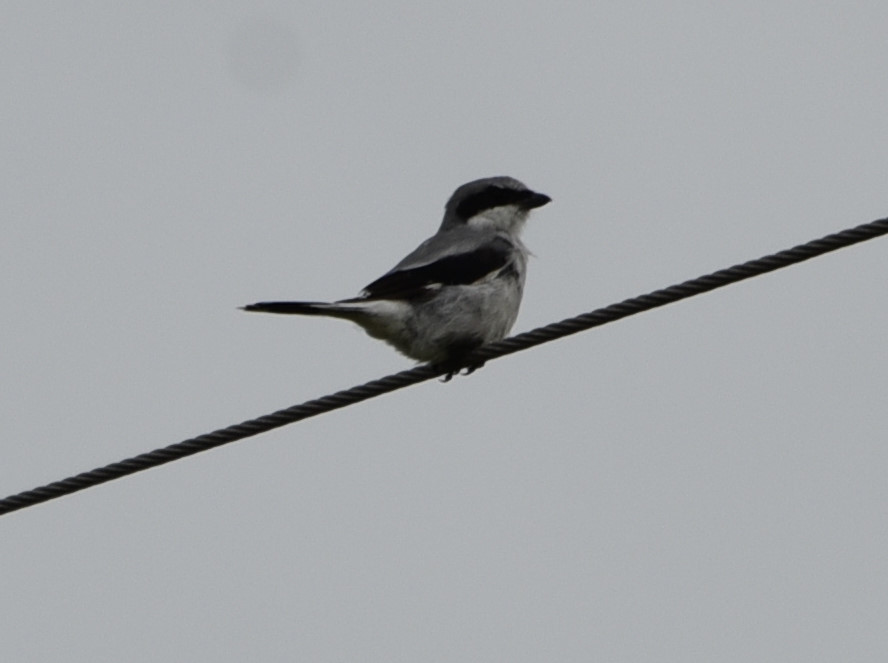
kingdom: Animalia
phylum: Chordata
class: Aves
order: Passeriformes
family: Laniidae
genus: Lanius
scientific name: Lanius ludovicianus
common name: Loggerhead shrike
